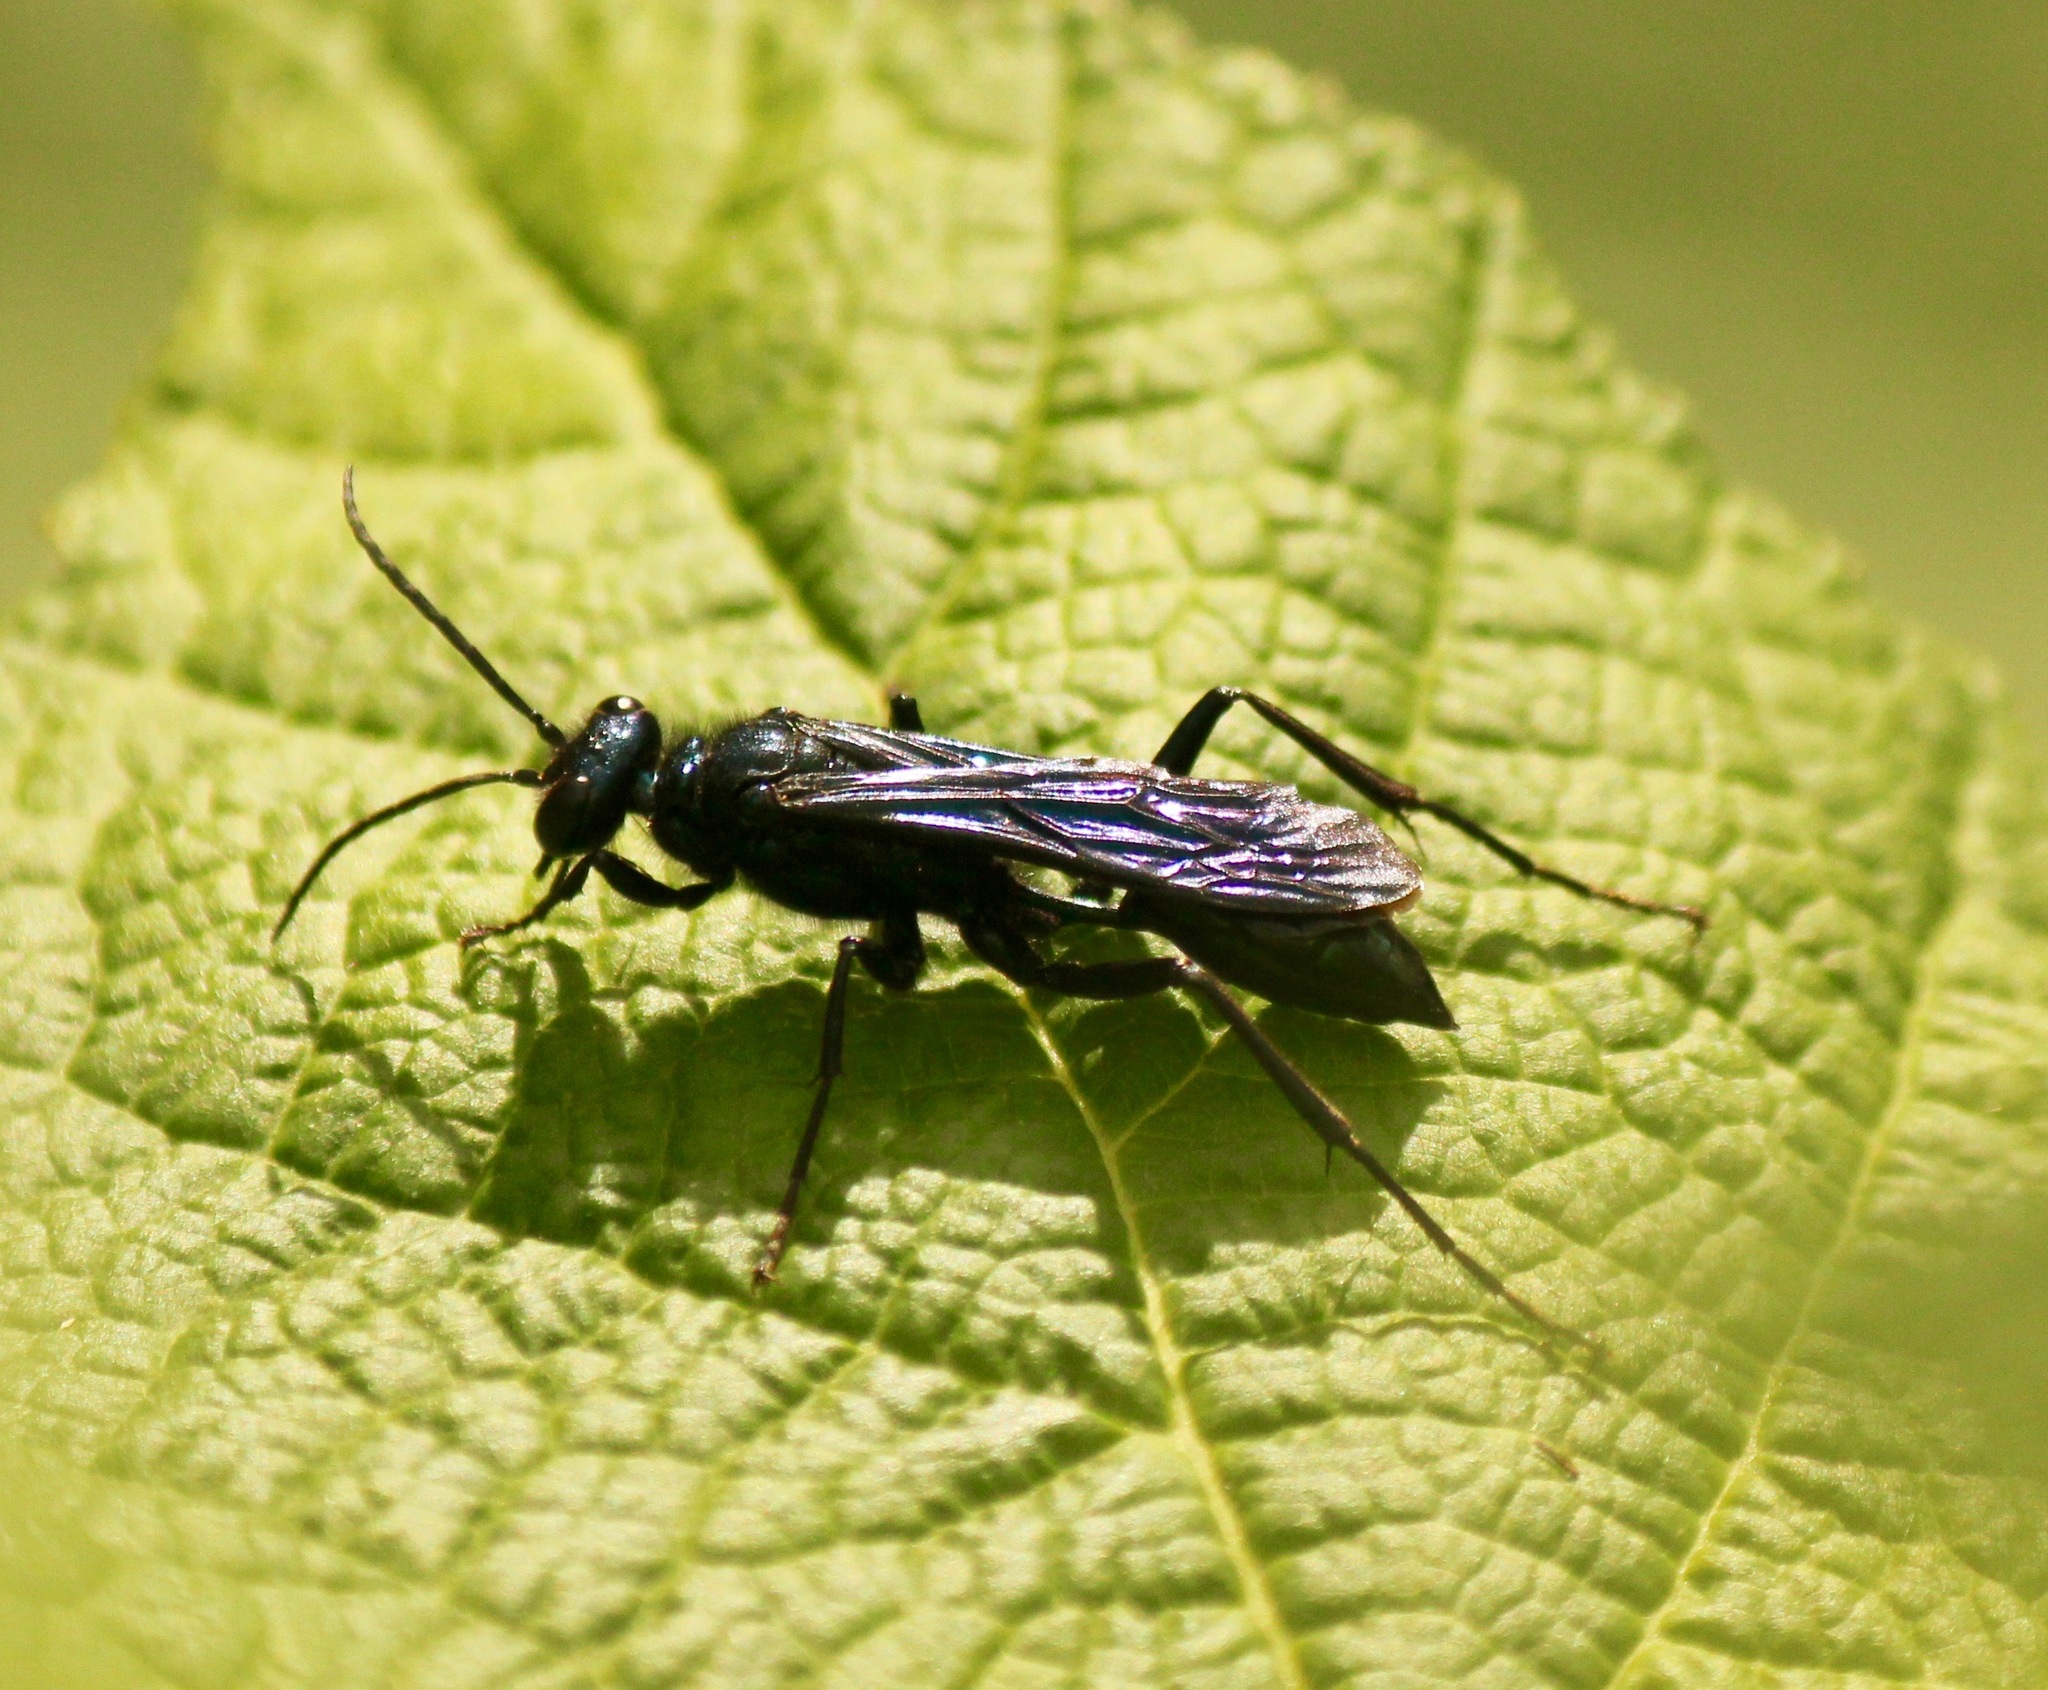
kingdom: Animalia
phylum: Arthropoda
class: Insecta
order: Hymenoptera
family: Sphecidae
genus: Chalybion
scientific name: Chalybion californicum
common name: Mud dauber
